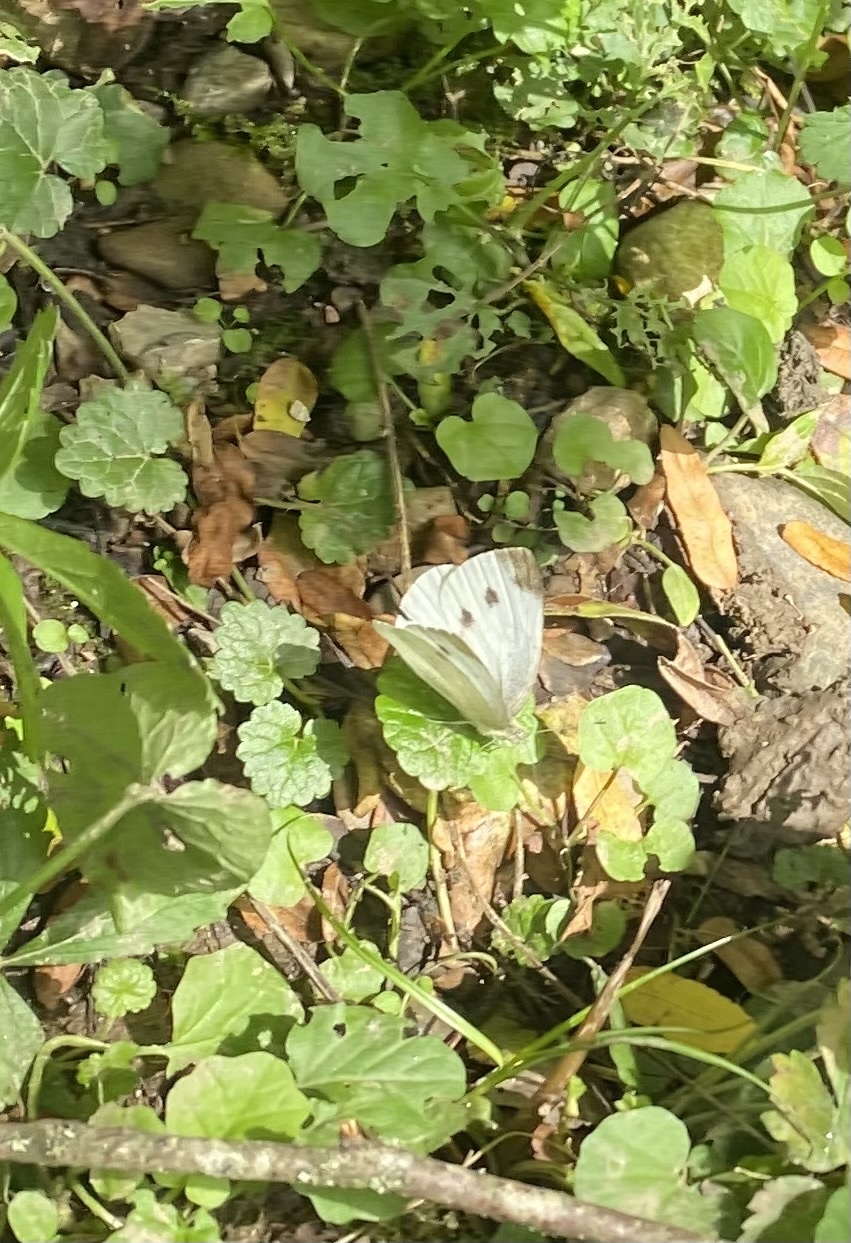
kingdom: Plantae
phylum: Tracheophyta
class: Magnoliopsida
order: Lamiales
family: Lamiaceae
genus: Glechoma
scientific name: Glechoma hederacea
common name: Ground ivy
